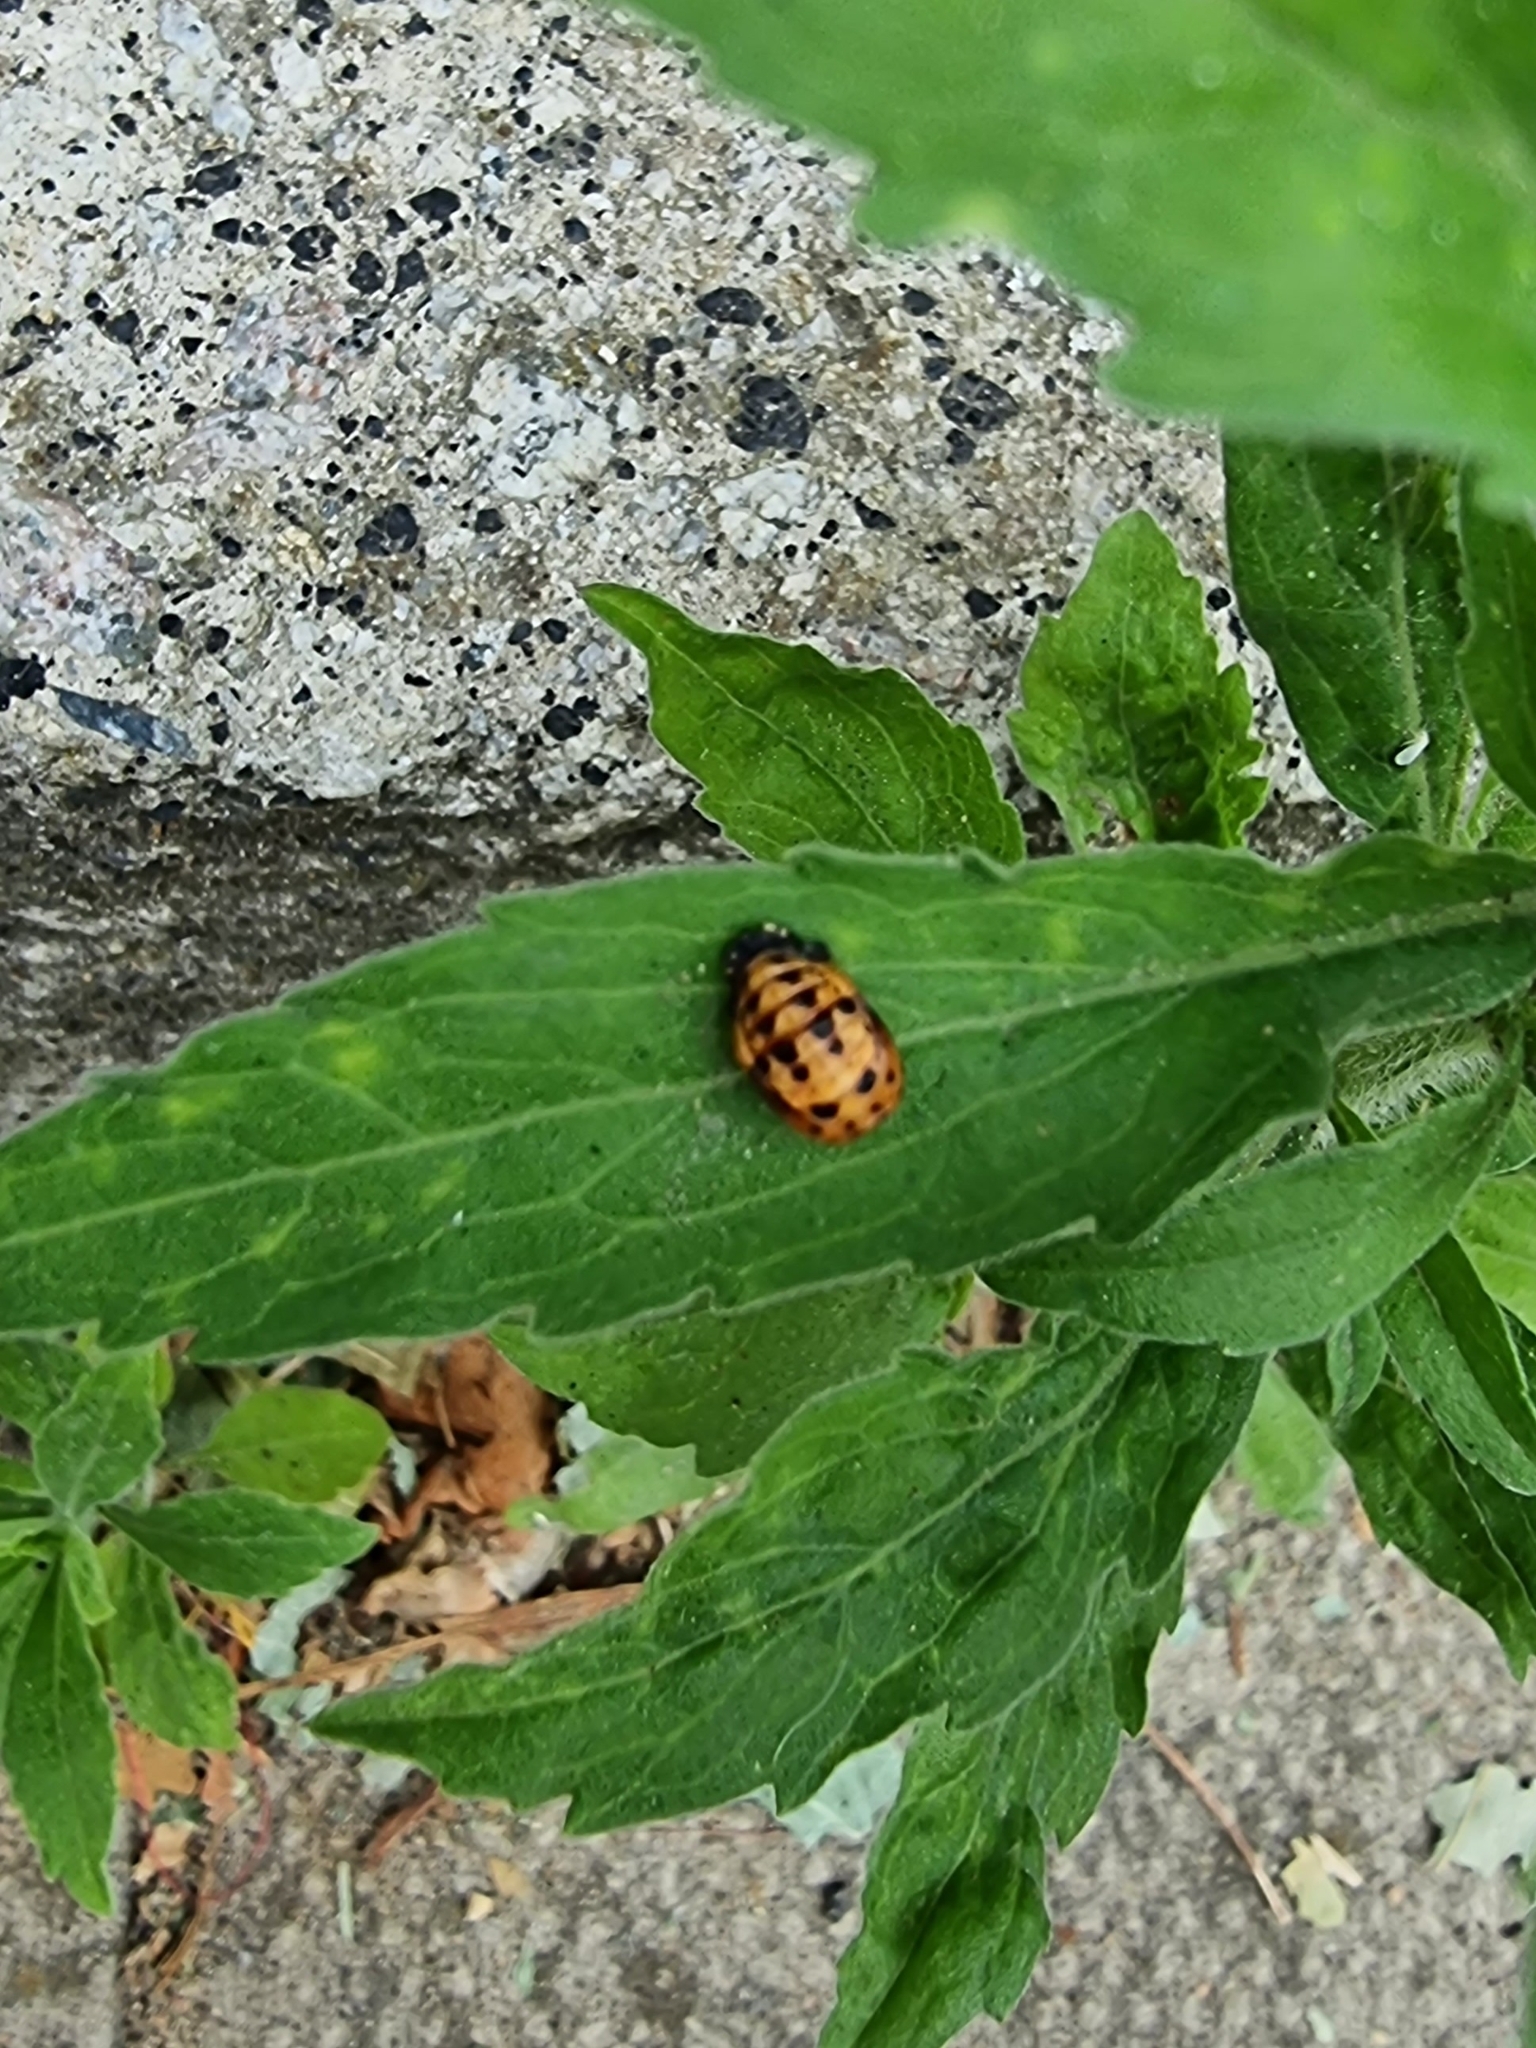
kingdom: Animalia
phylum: Arthropoda
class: Insecta
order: Coleoptera
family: Coccinellidae
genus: Harmonia
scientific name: Harmonia axyridis
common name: Harlequin ladybird
